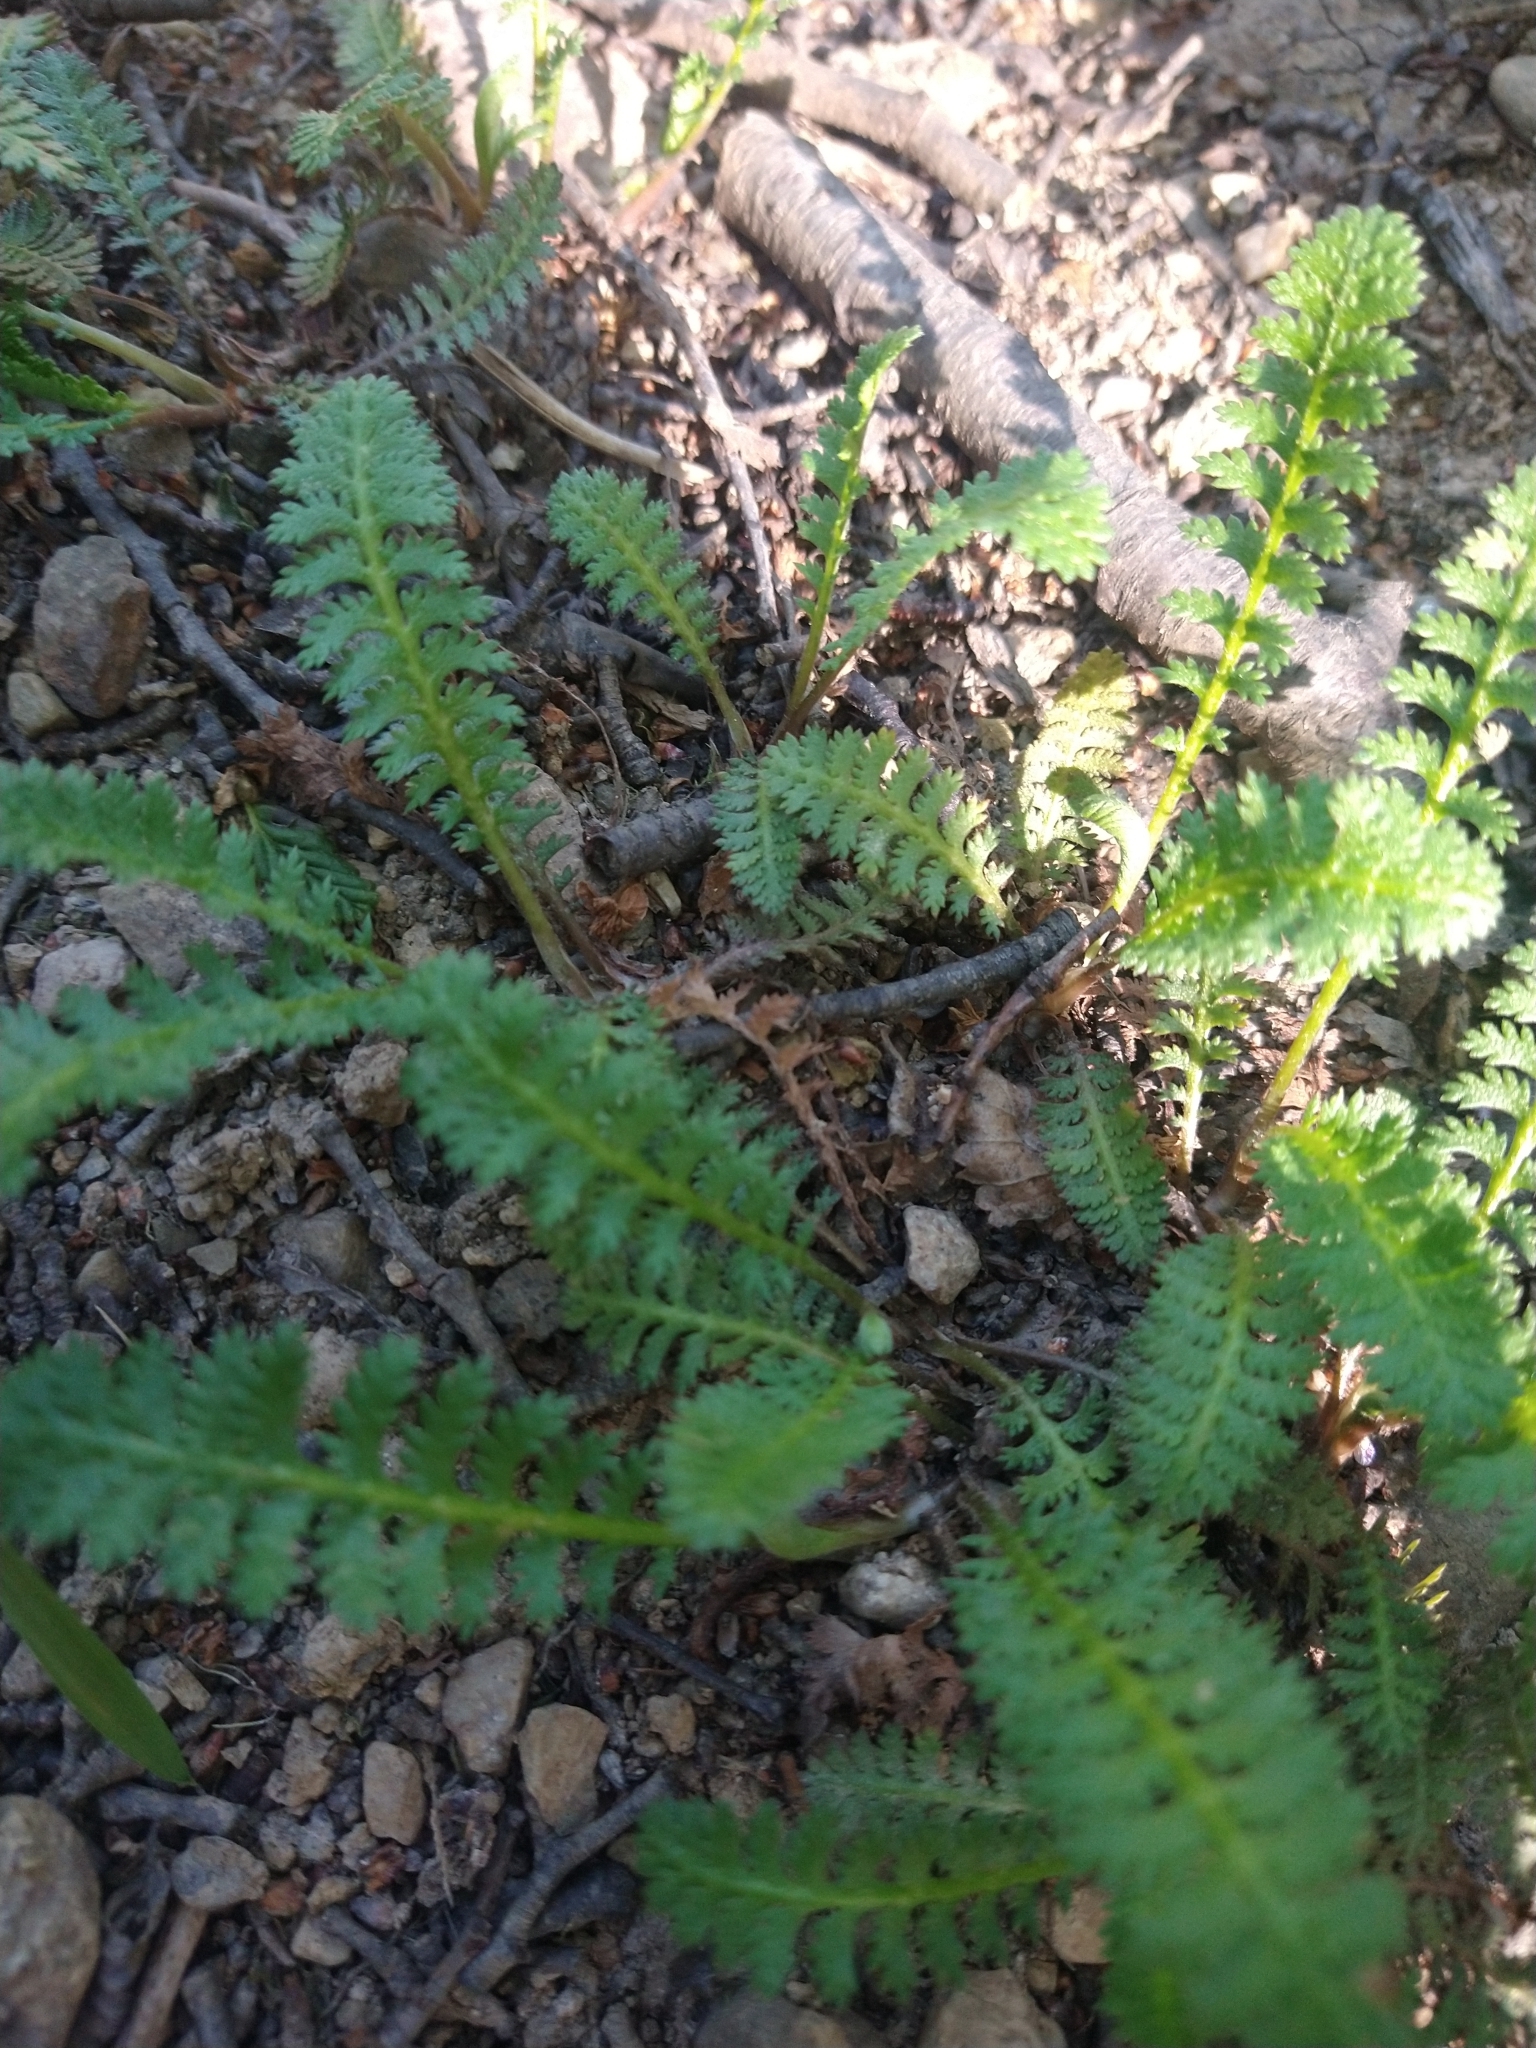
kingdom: Plantae
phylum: Tracheophyta
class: Magnoliopsida
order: Asterales
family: Asteraceae
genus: Leptinella
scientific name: Leptinella scariosa
